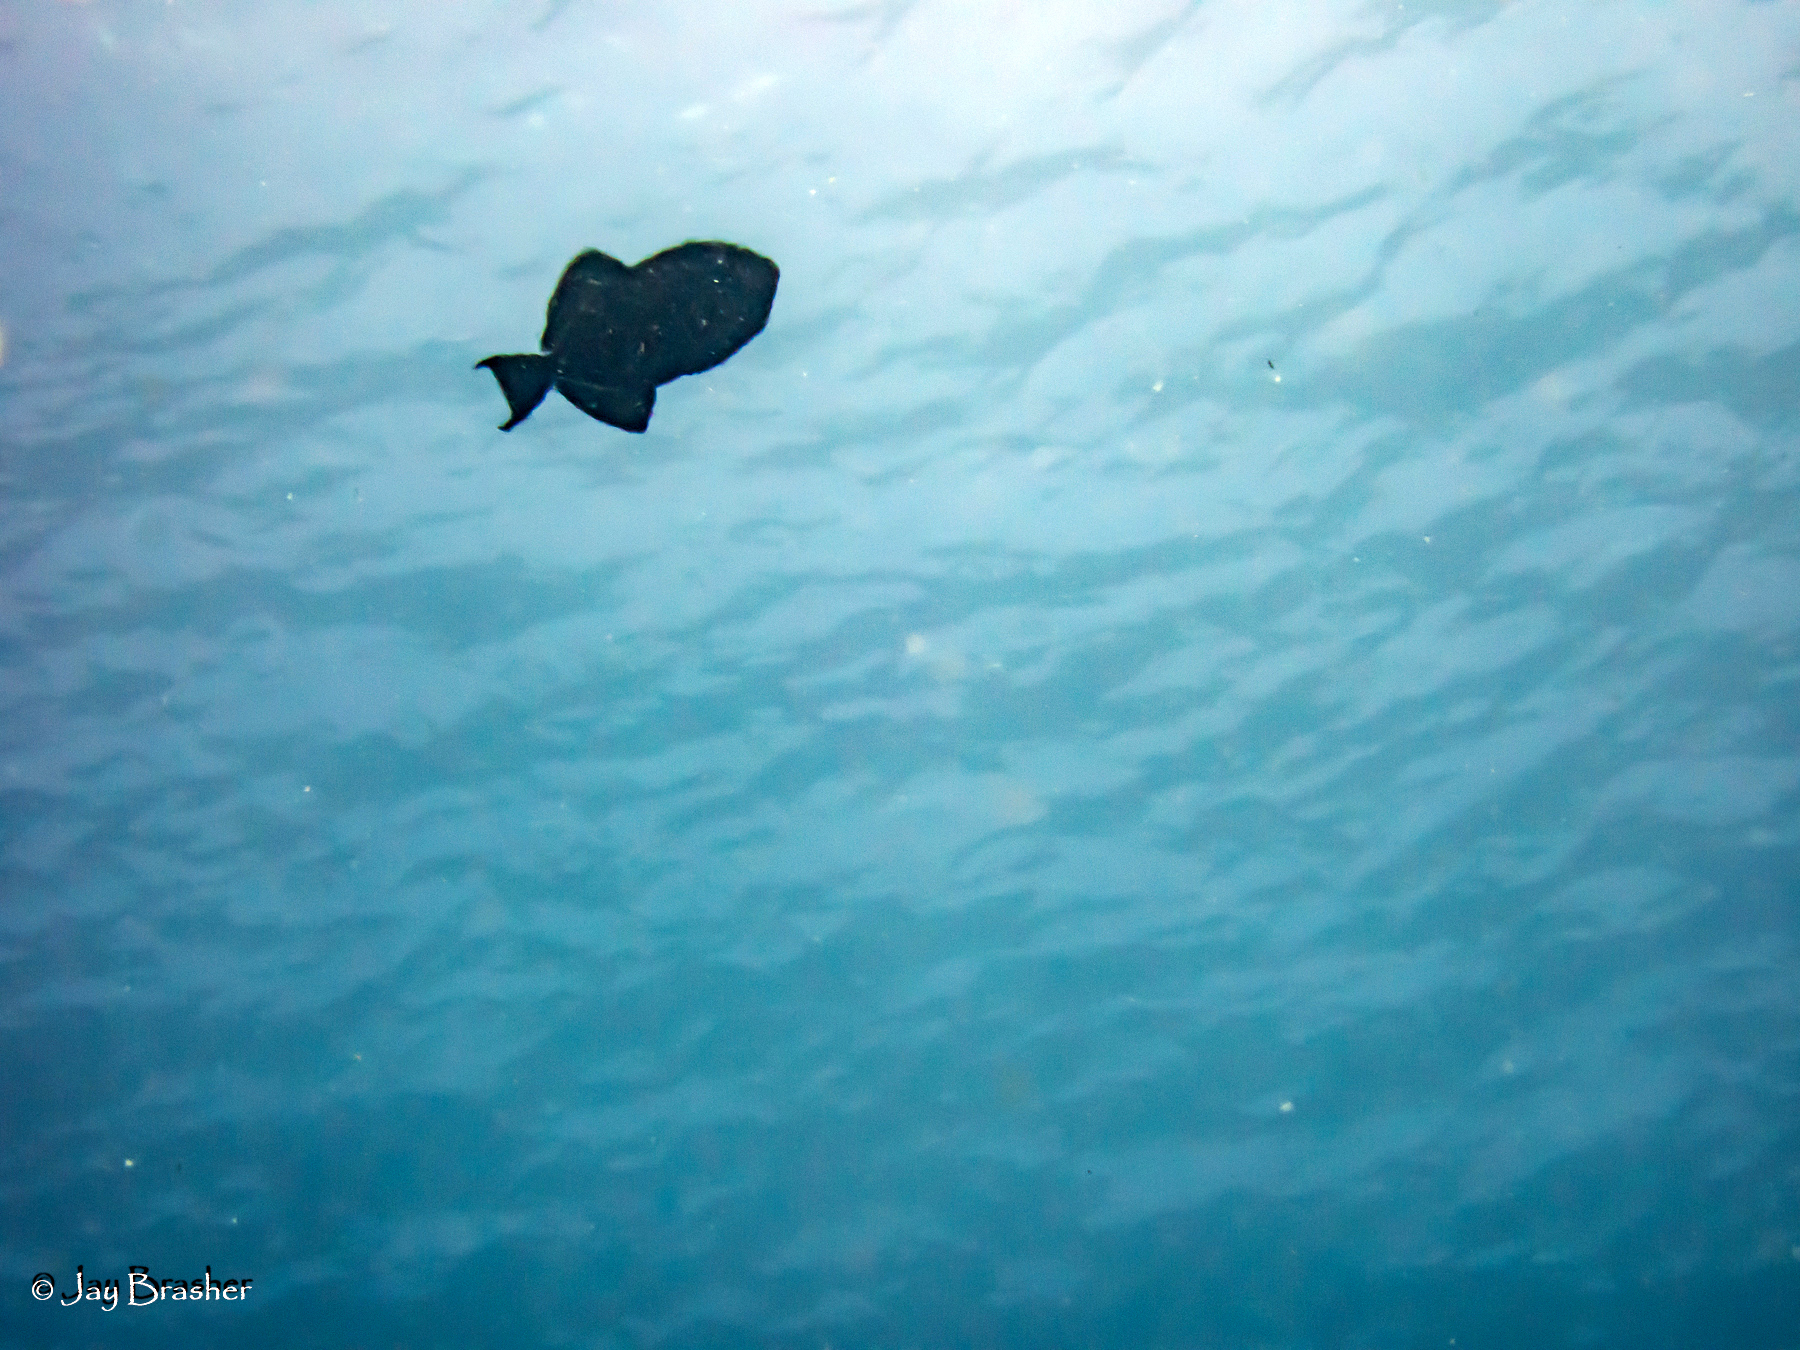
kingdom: Animalia
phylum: Chordata
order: Tetraodontiformes
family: Balistidae
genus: Melichthys
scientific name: Melichthys niger
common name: Black durgon
